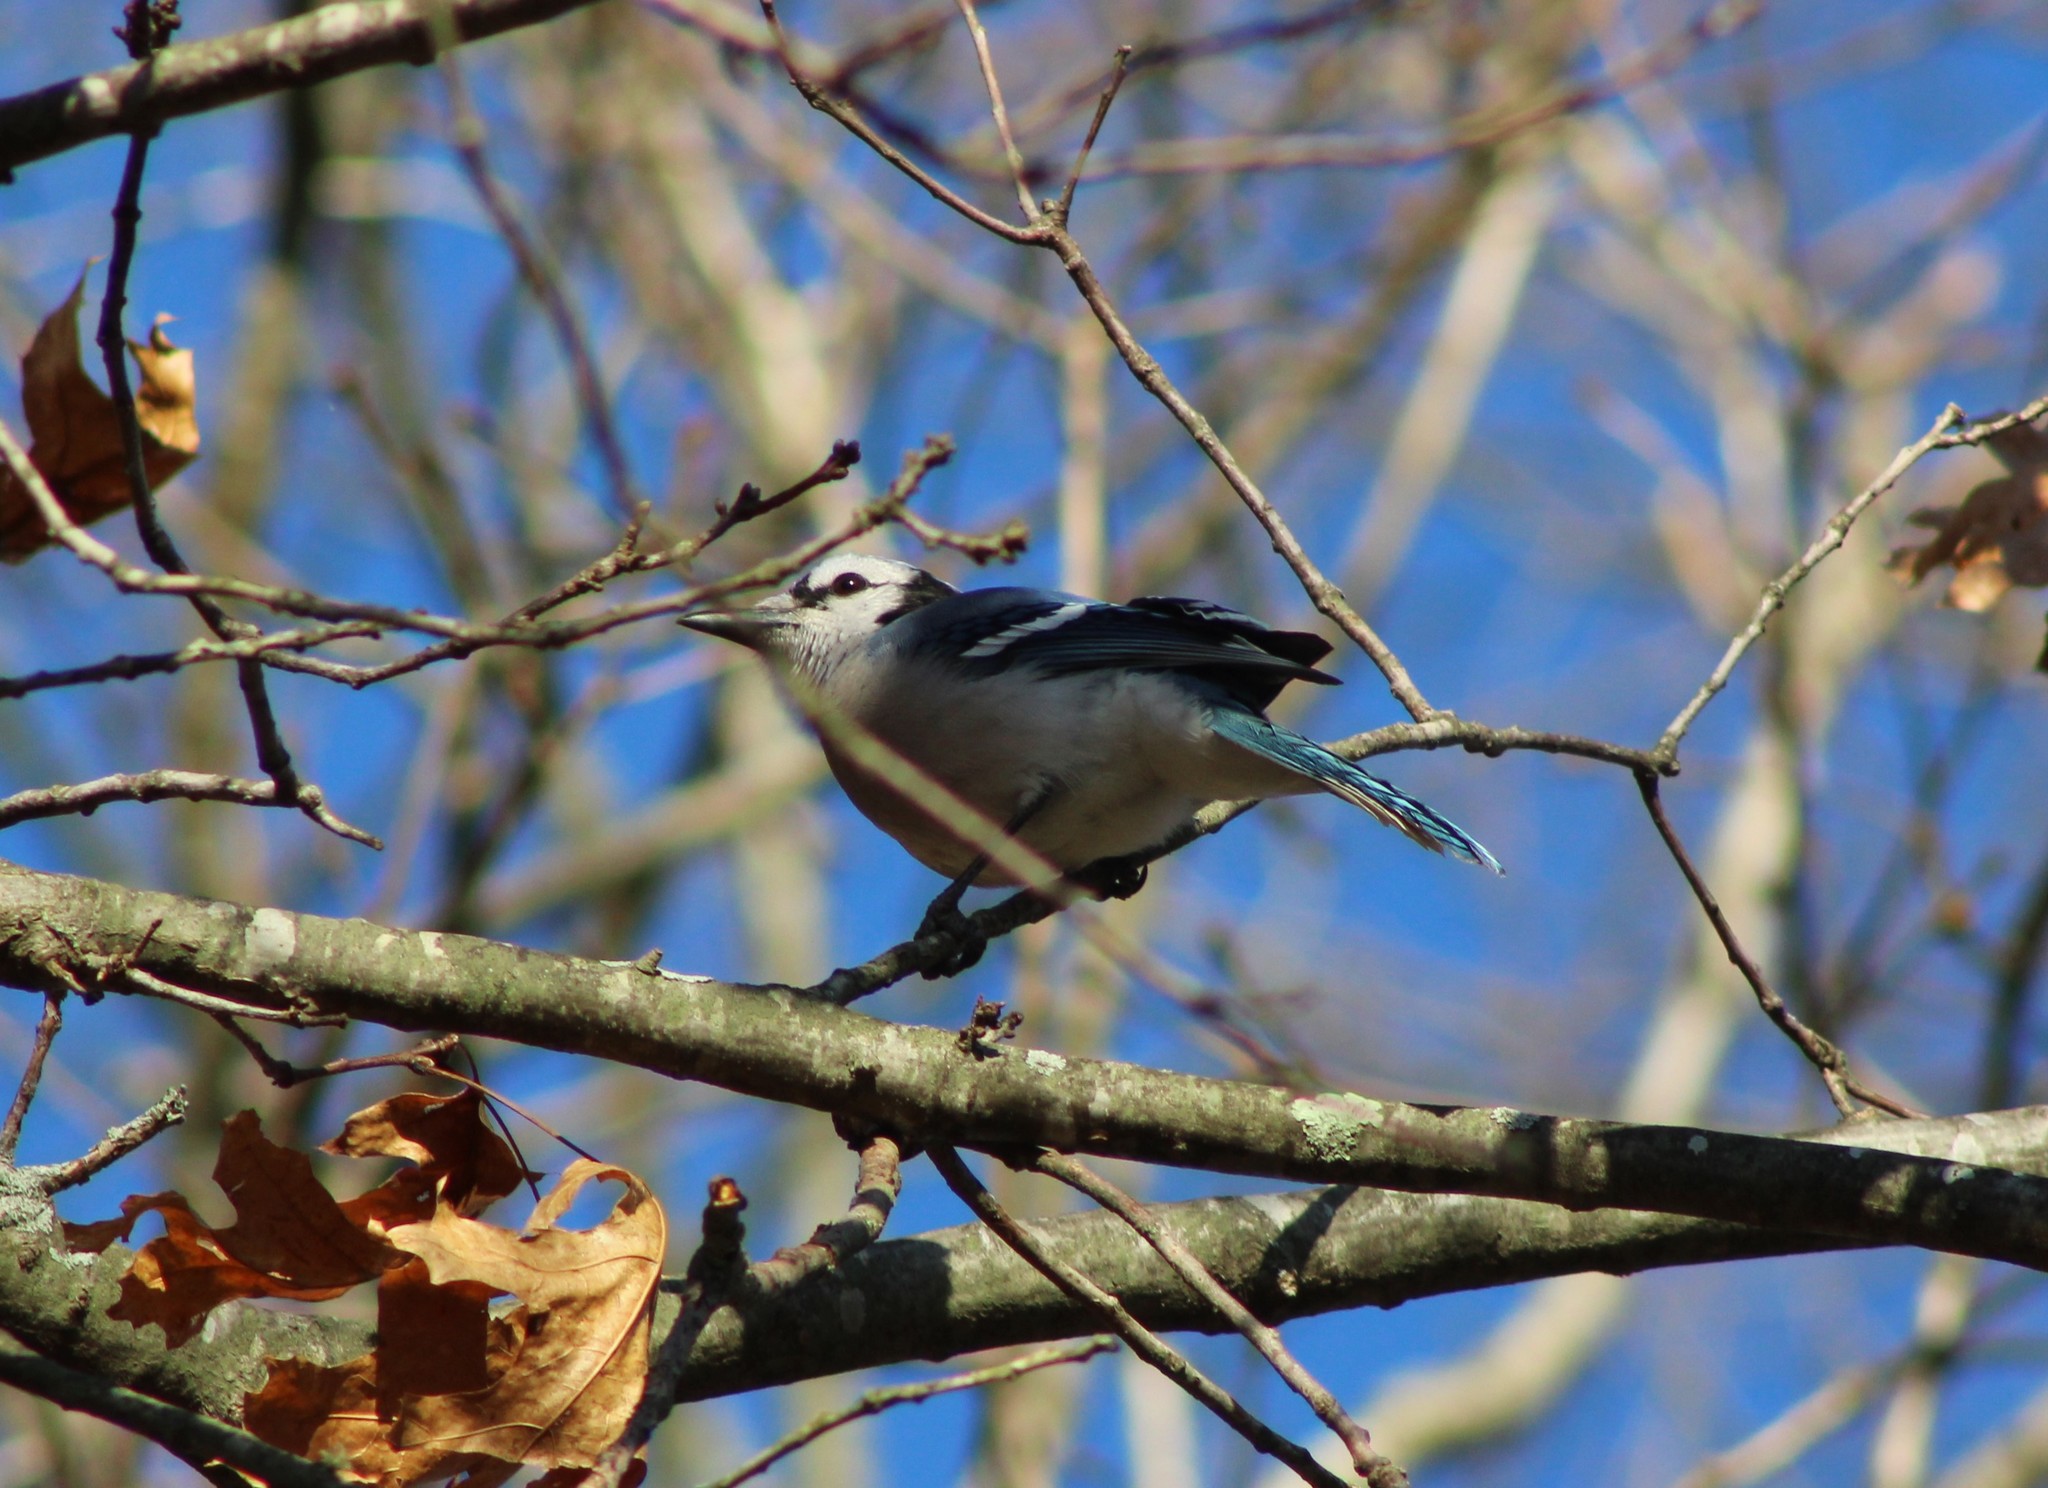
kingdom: Animalia
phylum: Chordata
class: Aves
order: Passeriformes
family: Corvidae
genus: Cyanocitta
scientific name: Cyanocitta cristata
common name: Blue jay
